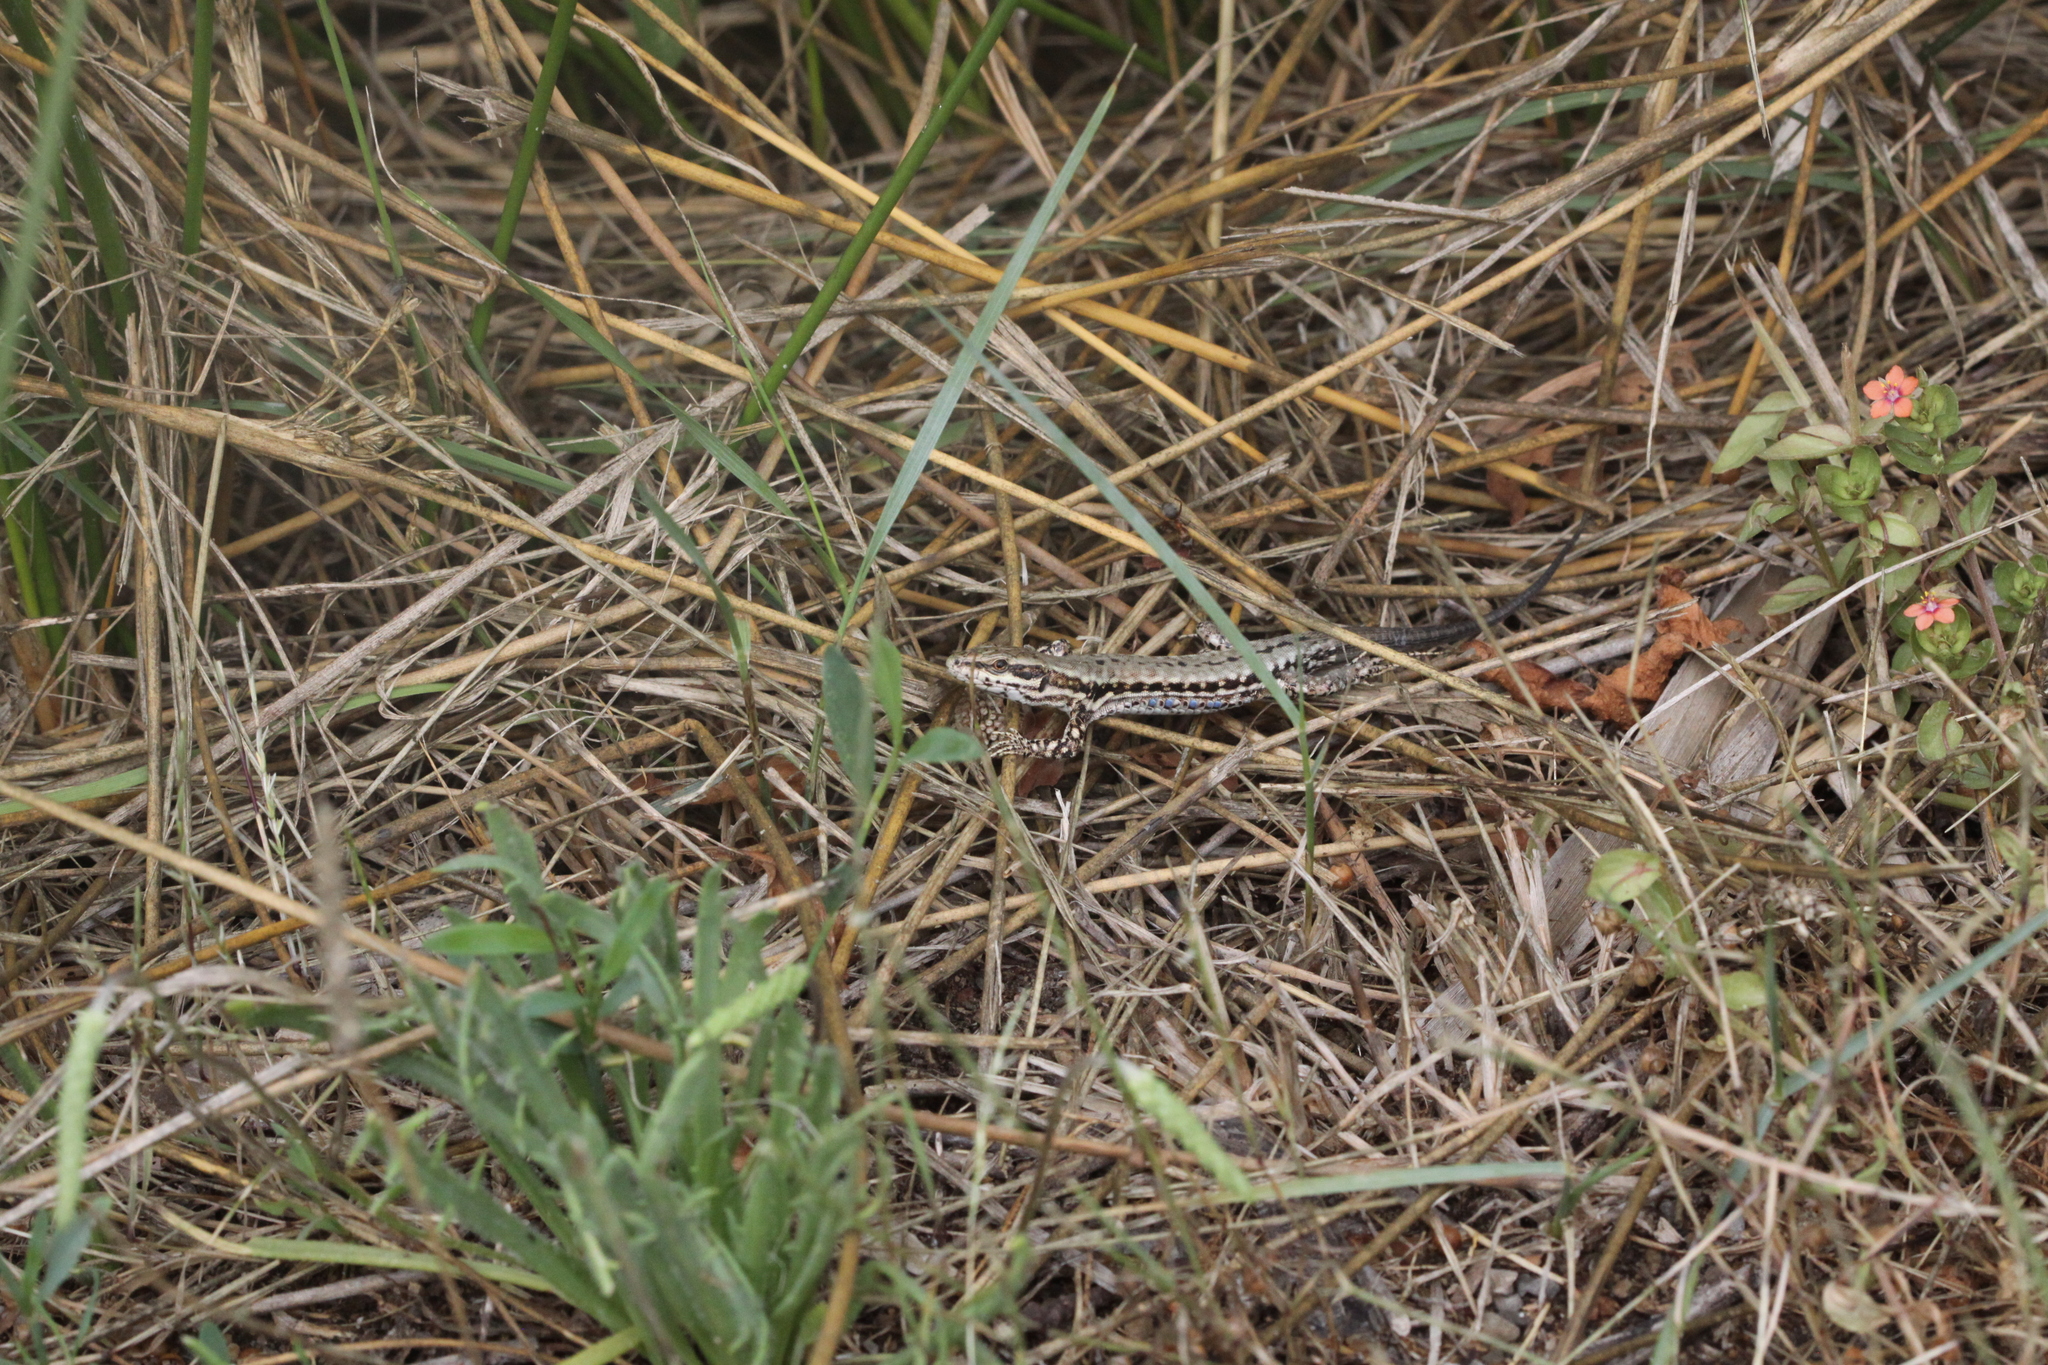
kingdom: Animalia
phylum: Chordata
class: Squamata
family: Lacertidae
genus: Podarcis
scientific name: Podarcis muralis
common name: Common wall lizard
